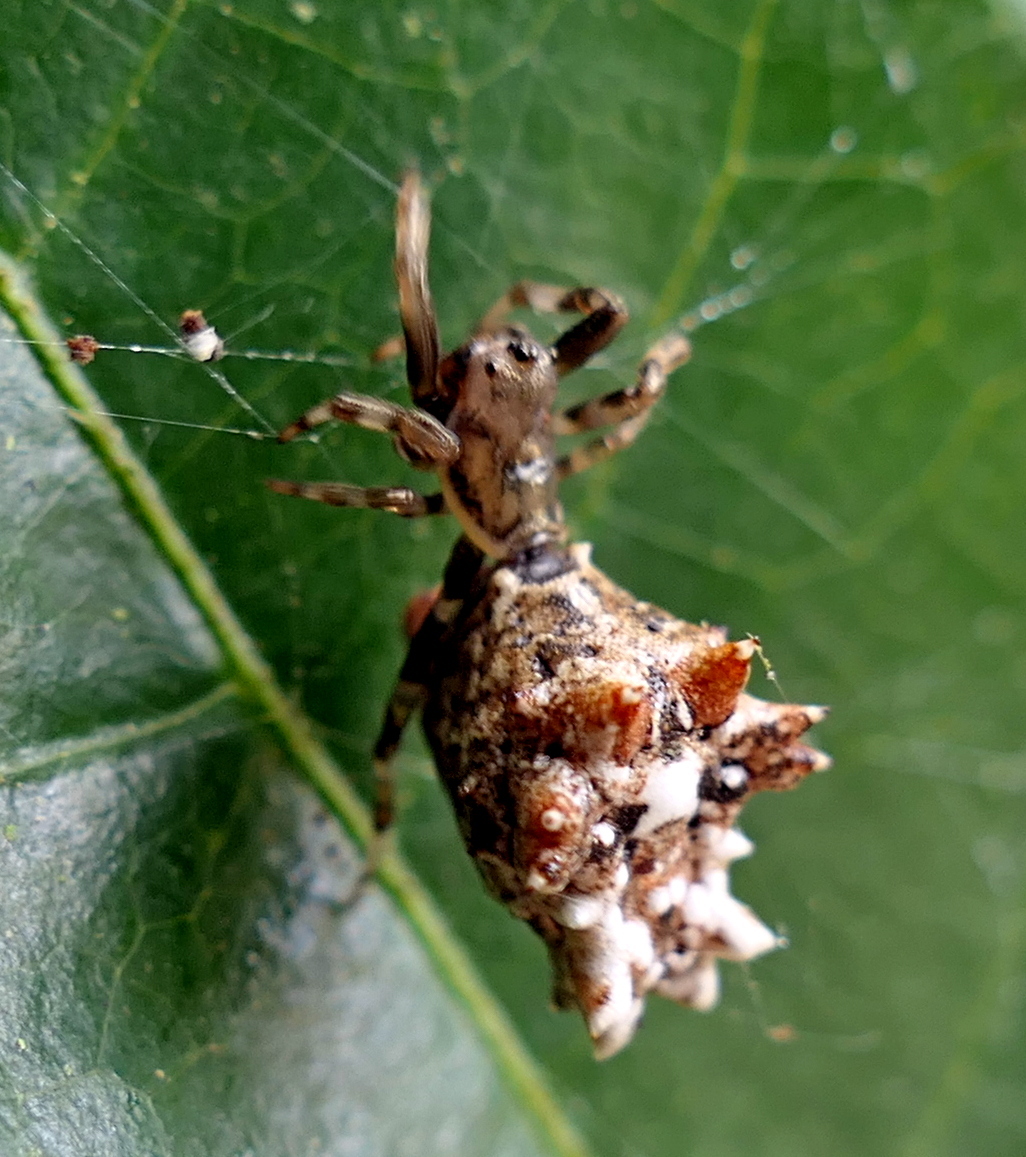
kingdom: Animalia
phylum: Arthropoda
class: Arachnida
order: Araneae
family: Araneidae
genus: Micrathena
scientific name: Micrathena horrida
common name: Orb weavers
